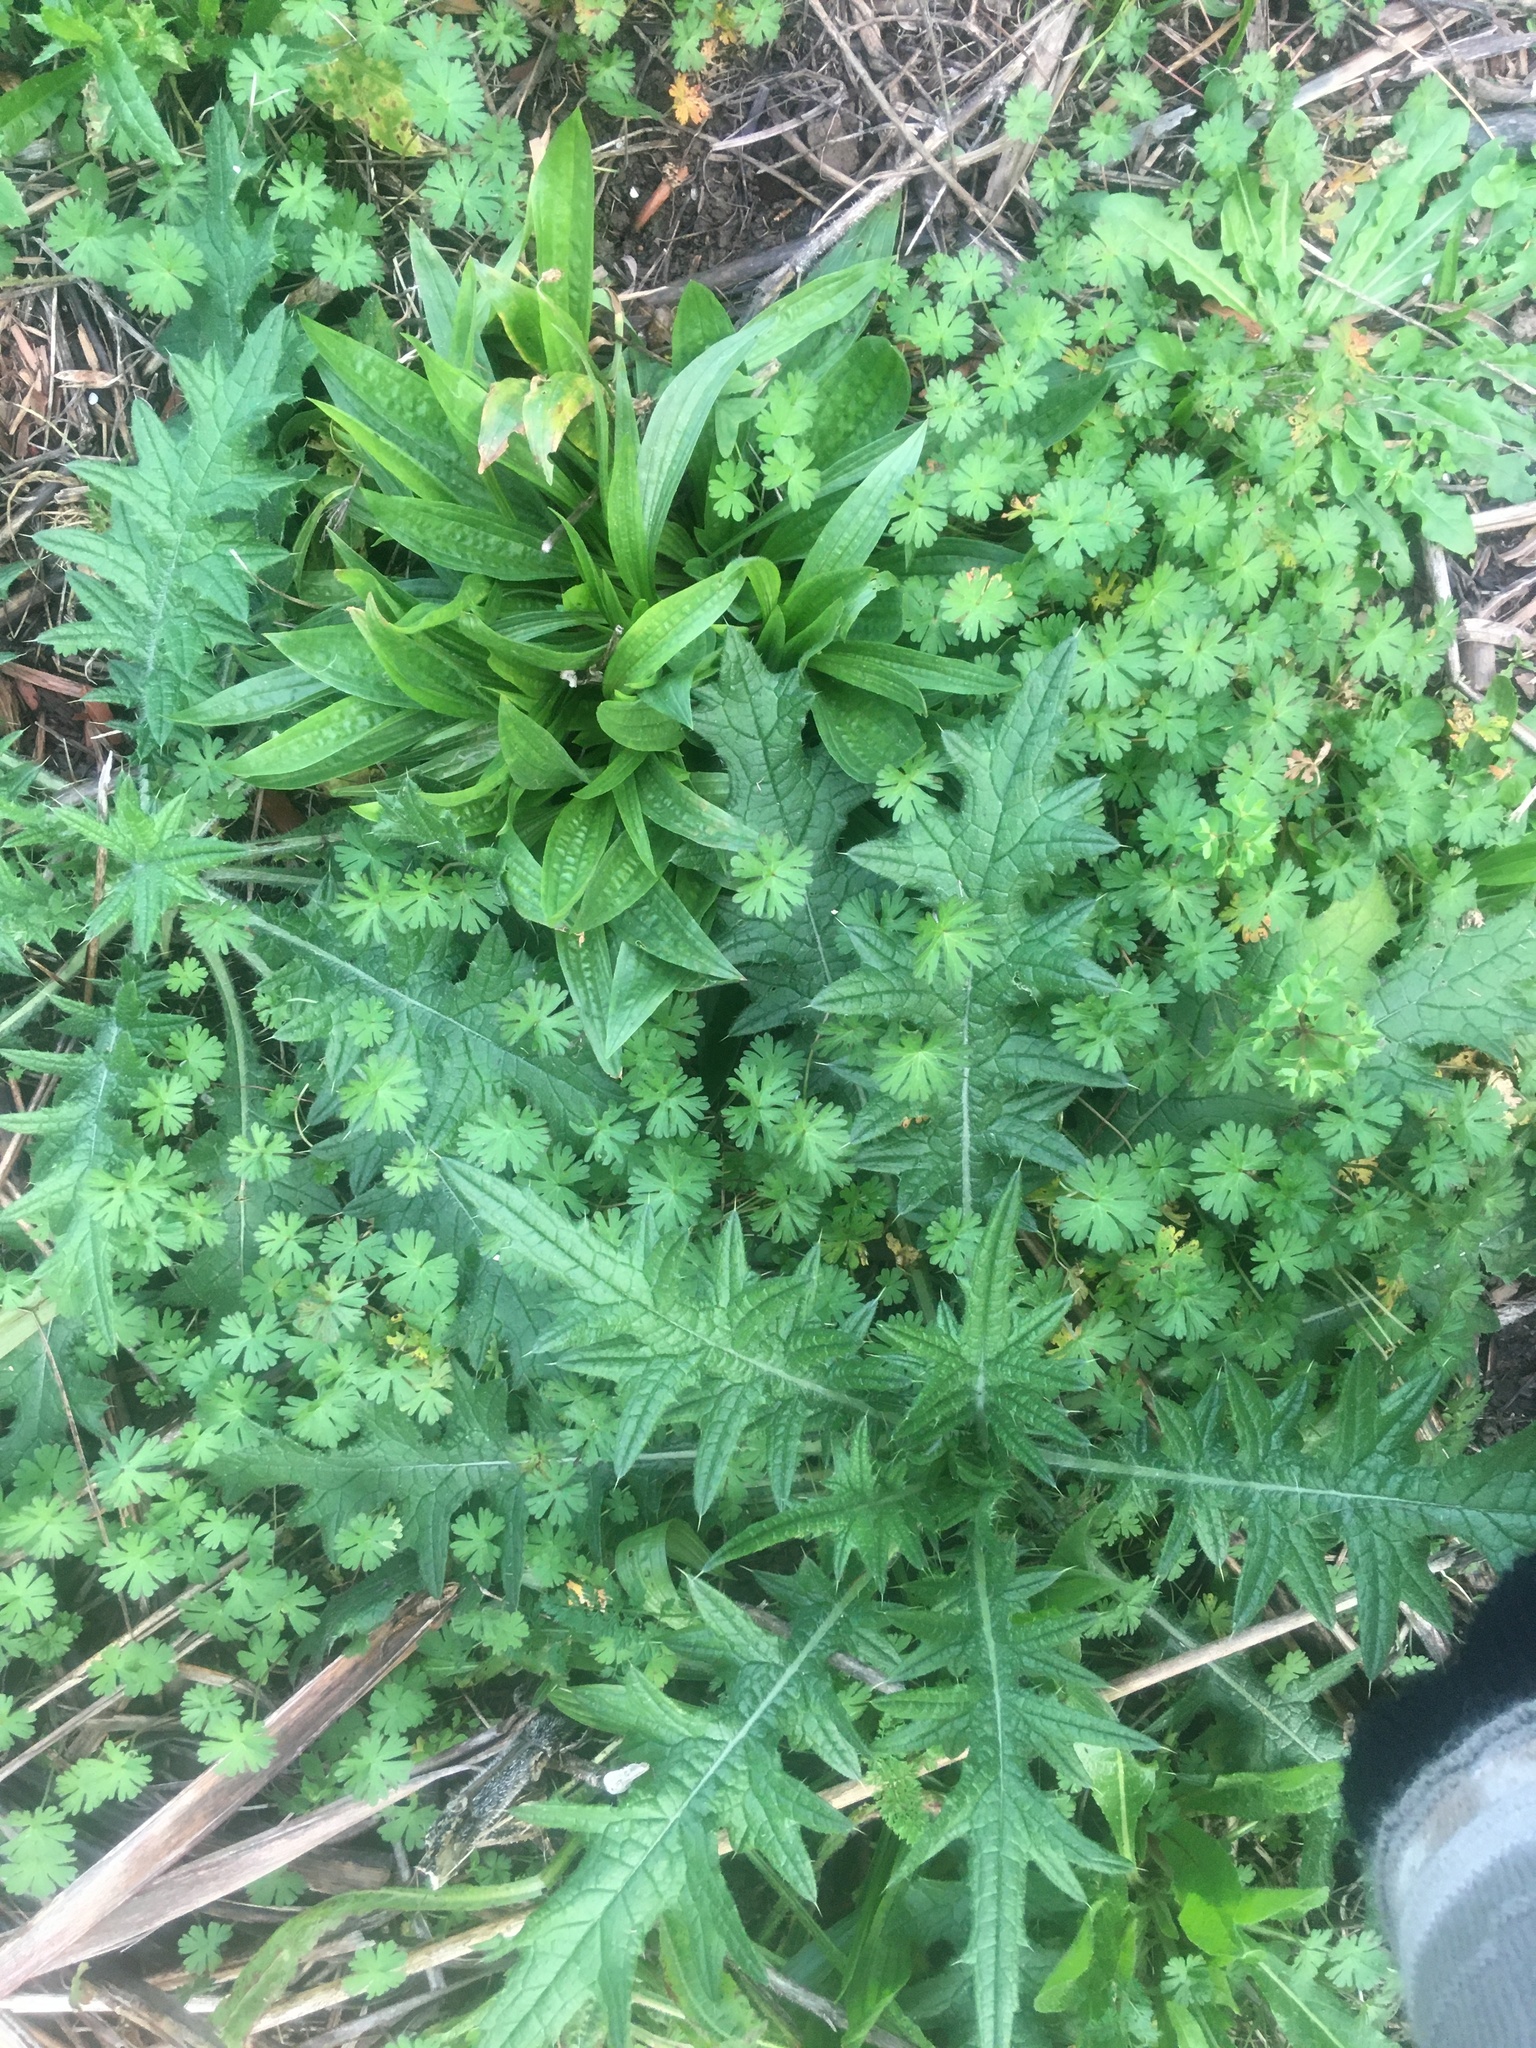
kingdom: Plantae
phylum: Tracheophyta
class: Magnoliopsida
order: Asterales
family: Asteraceae
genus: Cirsium
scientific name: Cirsium vulgare
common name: Bull thistle
